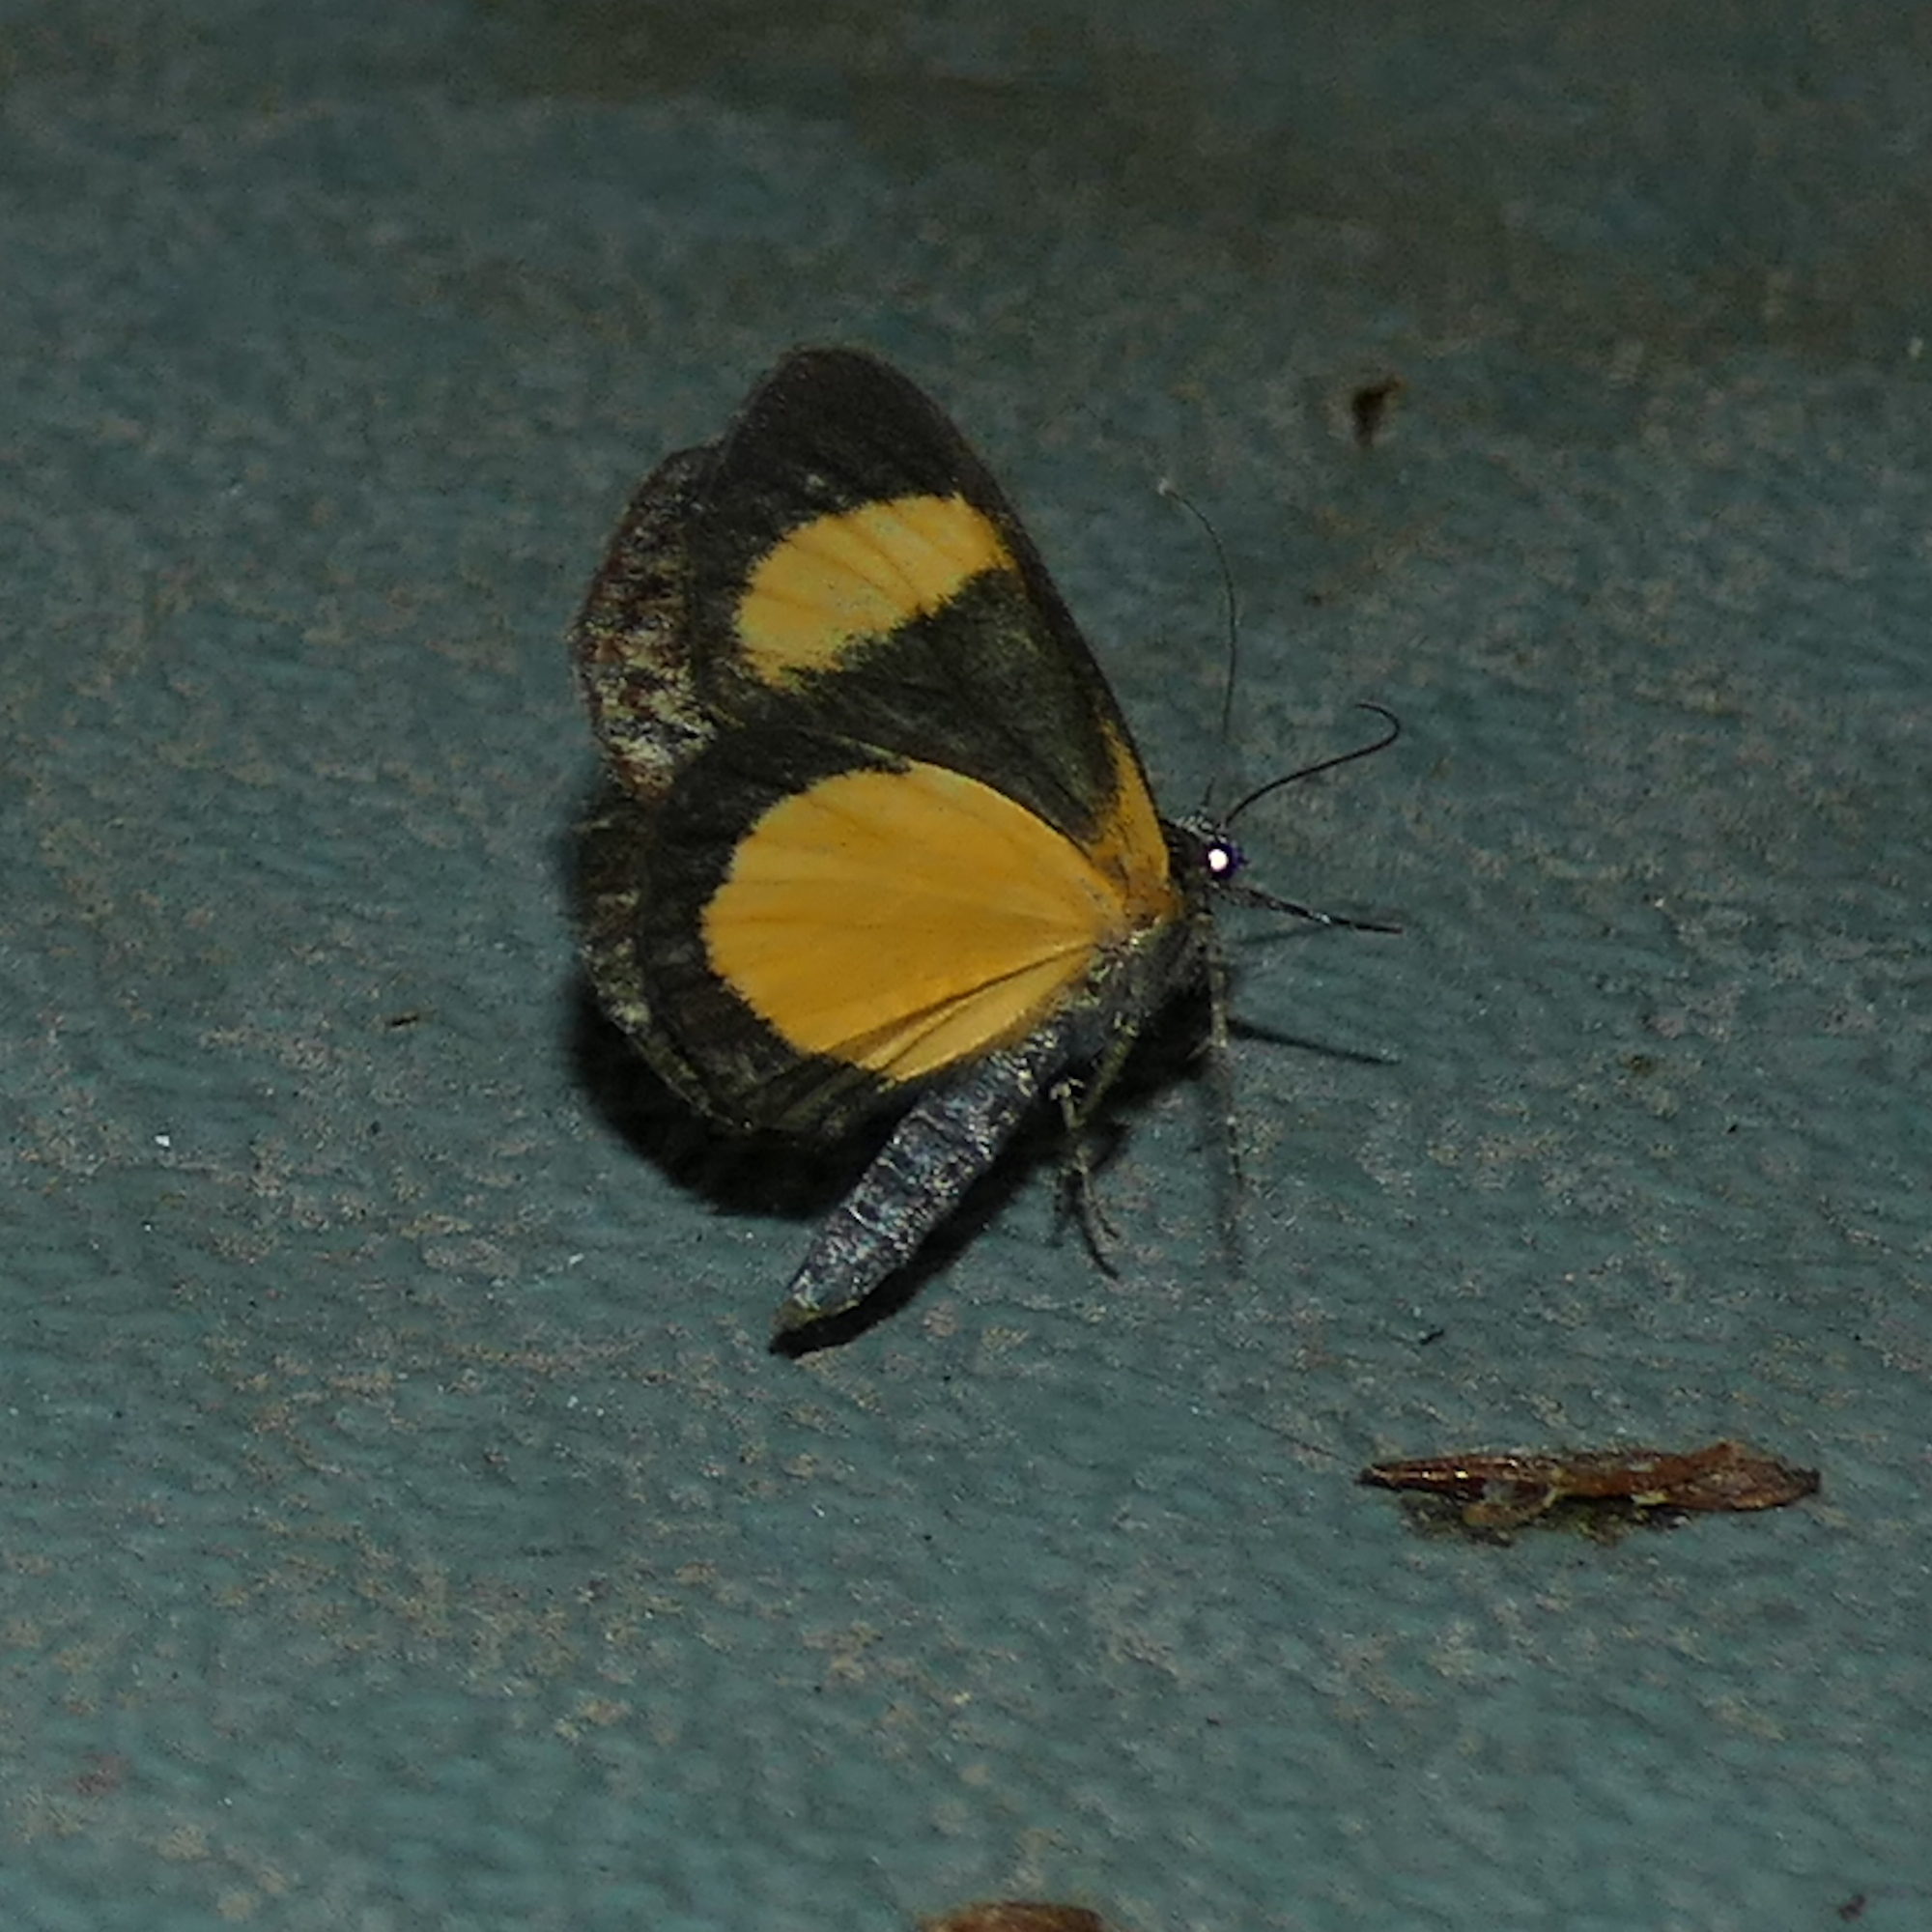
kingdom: Animalia
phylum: Arthropoda
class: Insecta
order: Lepidoptera
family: Noctuidae
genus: Gerra
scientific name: Gerra sevorsa
